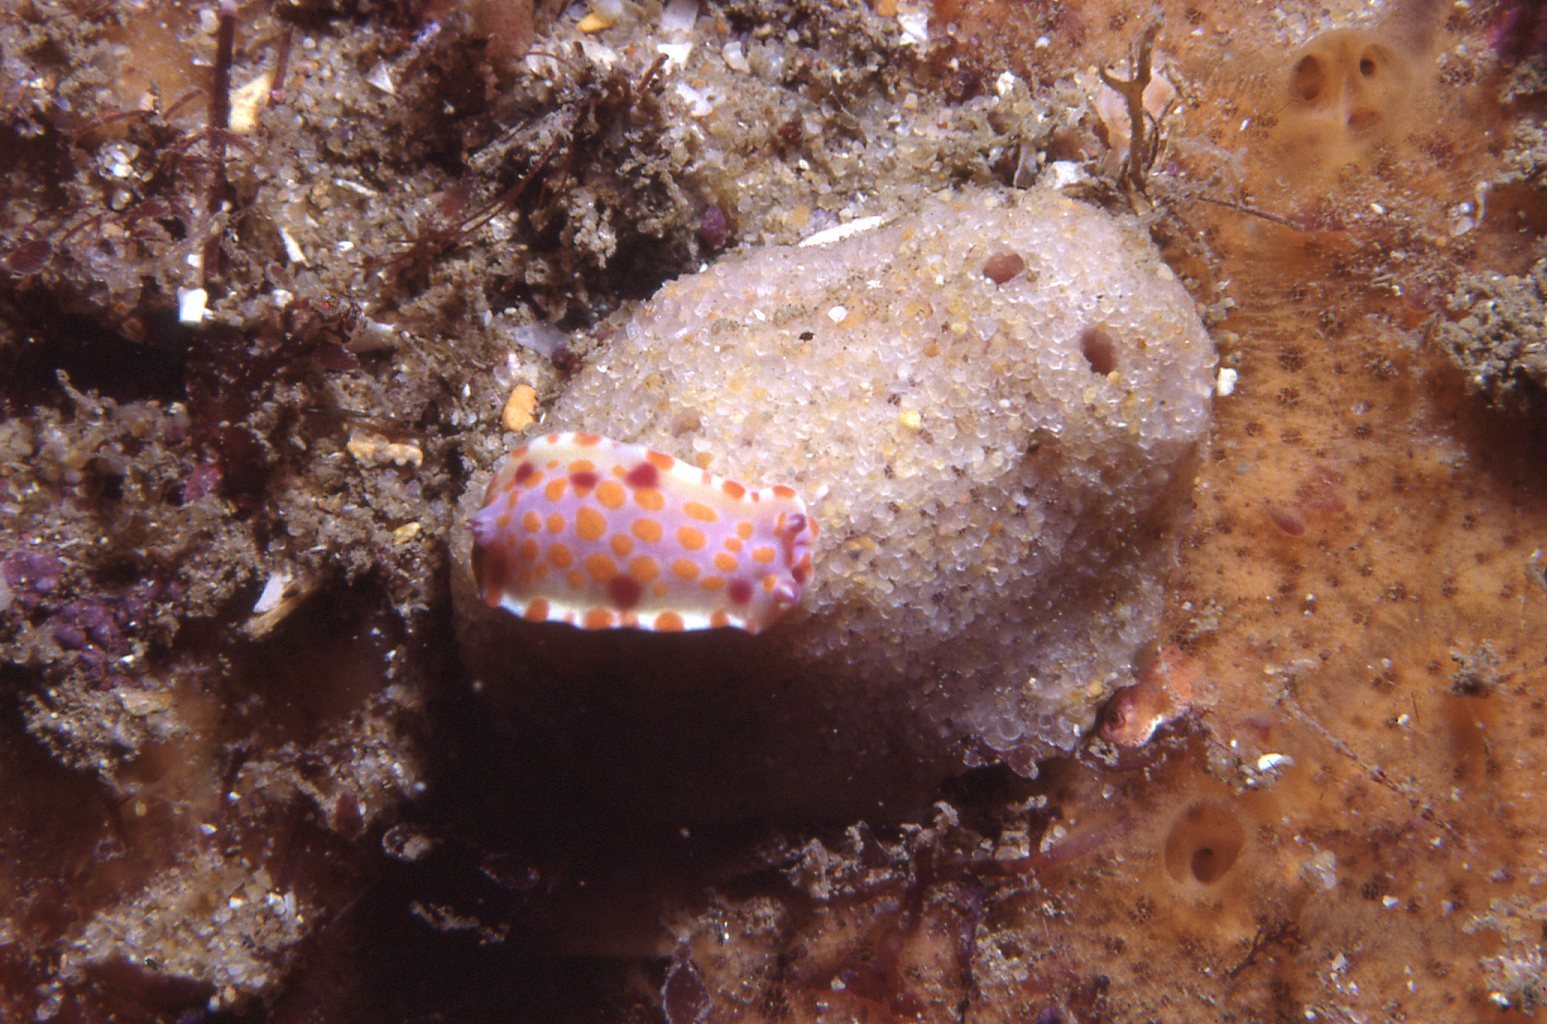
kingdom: Animalia
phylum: Mollusca
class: Gastropoda
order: Nudibranchia
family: Chromodorididae
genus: Ceratosoma
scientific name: Ceratosoma amoenum
